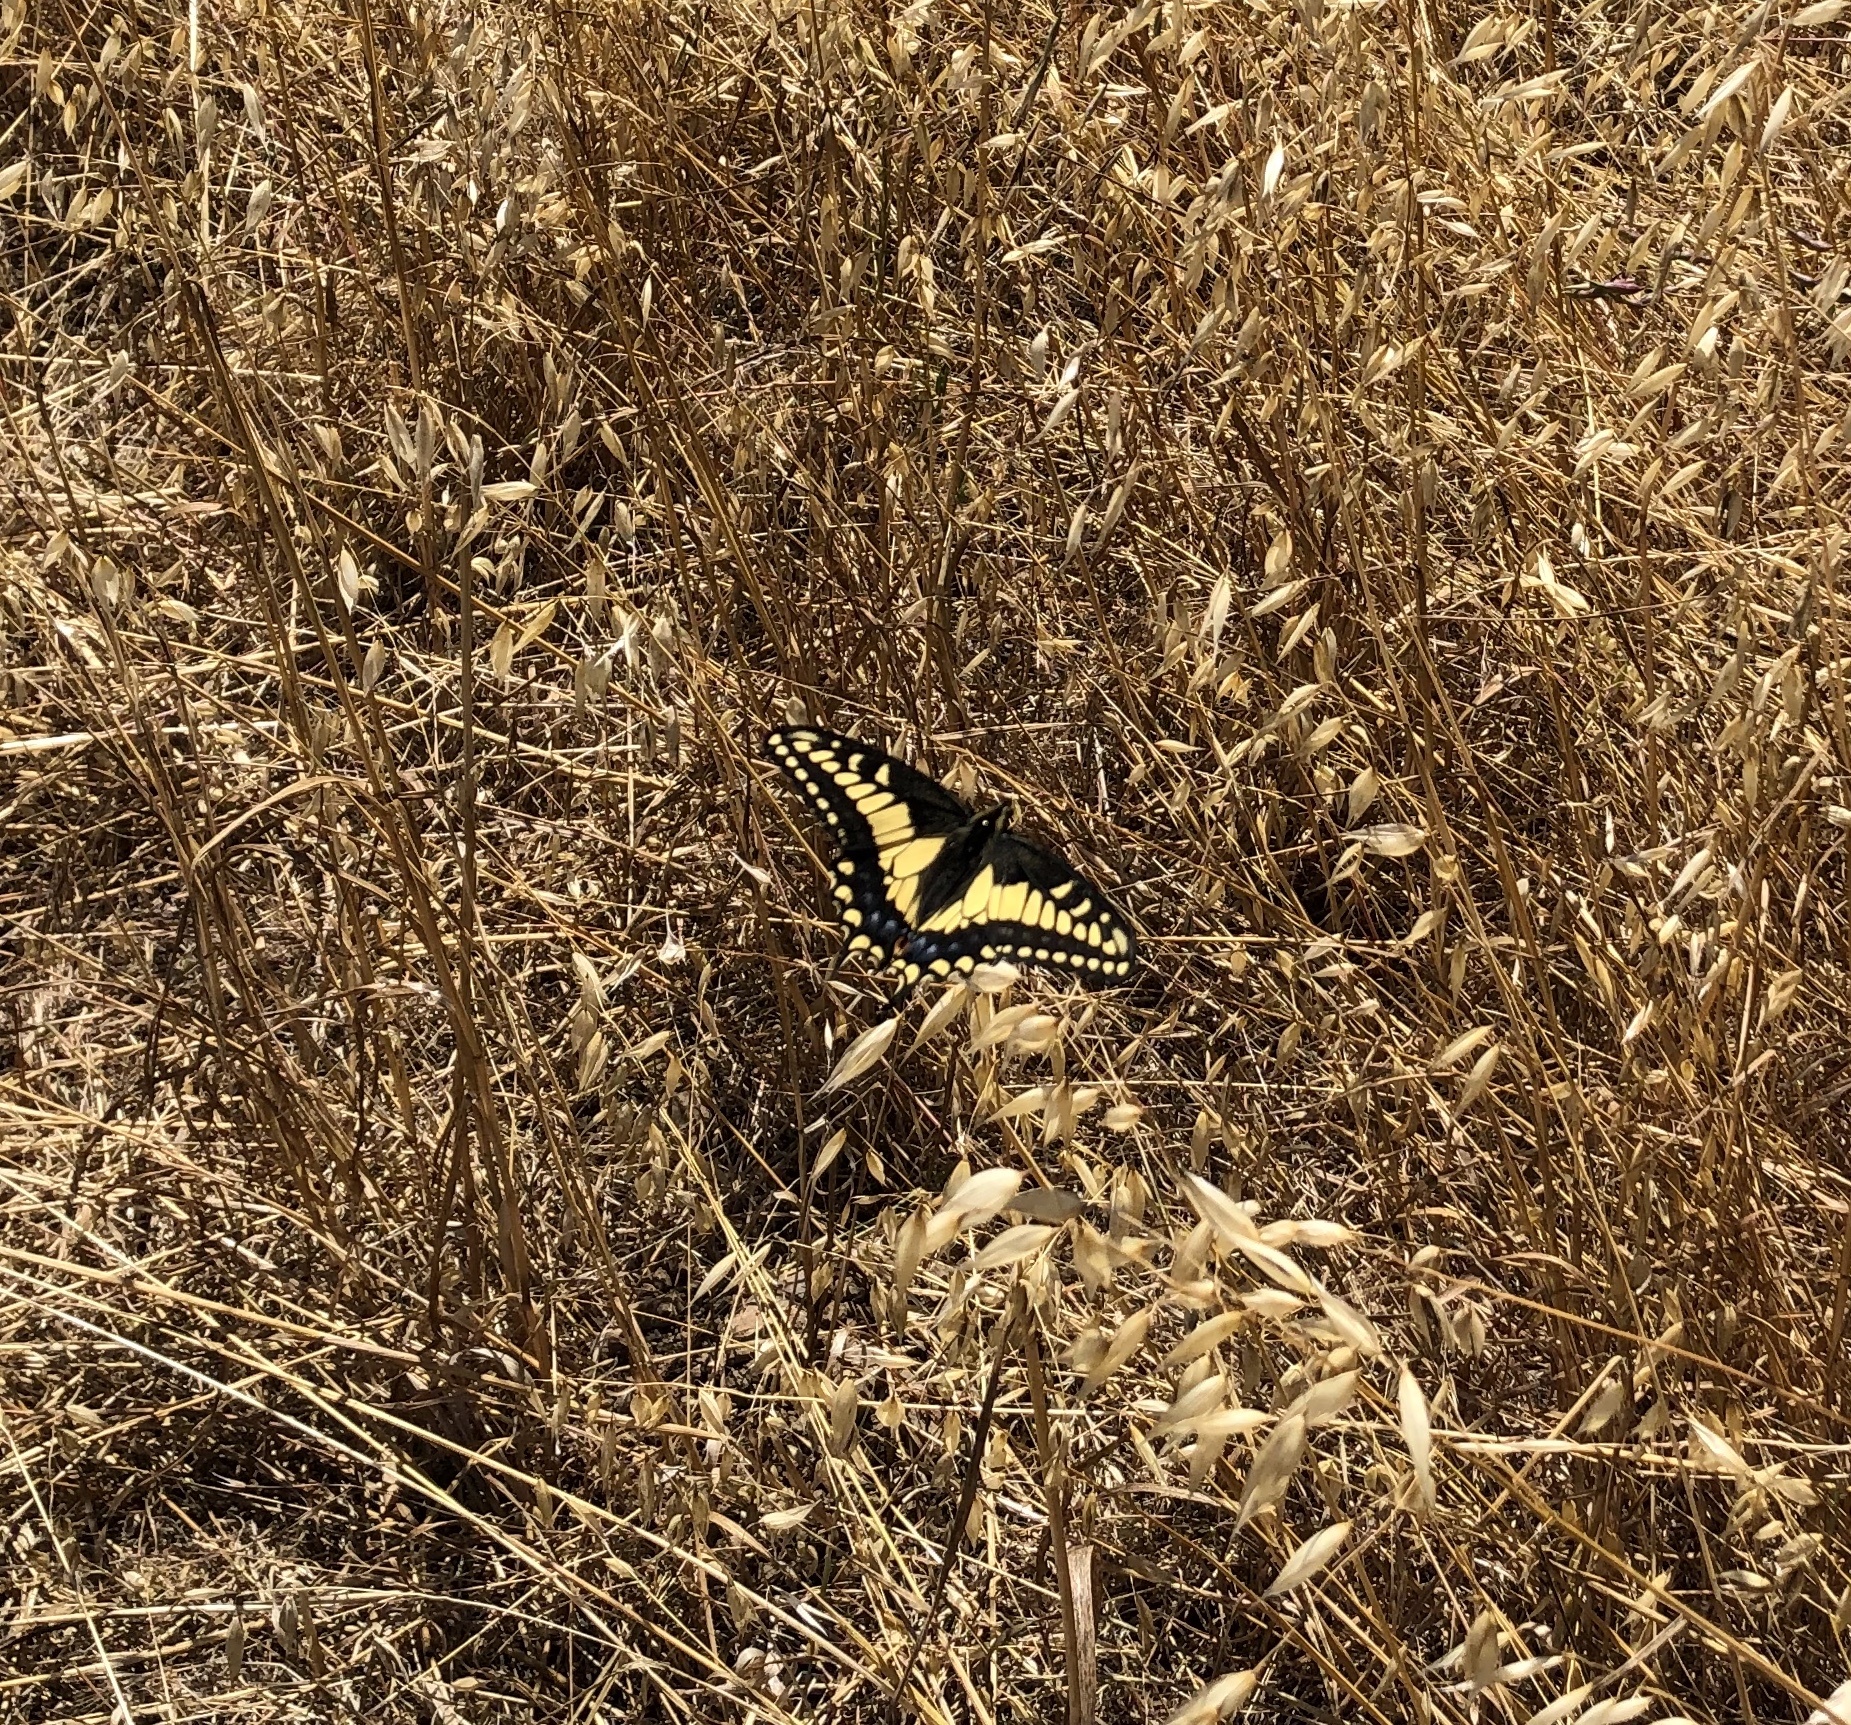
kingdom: Animalia
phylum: Arthropoda
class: Insecta
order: Lepidoptera
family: Papilionidae
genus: Papilio
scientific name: Papilio zelicaon
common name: Anise swallowtail
